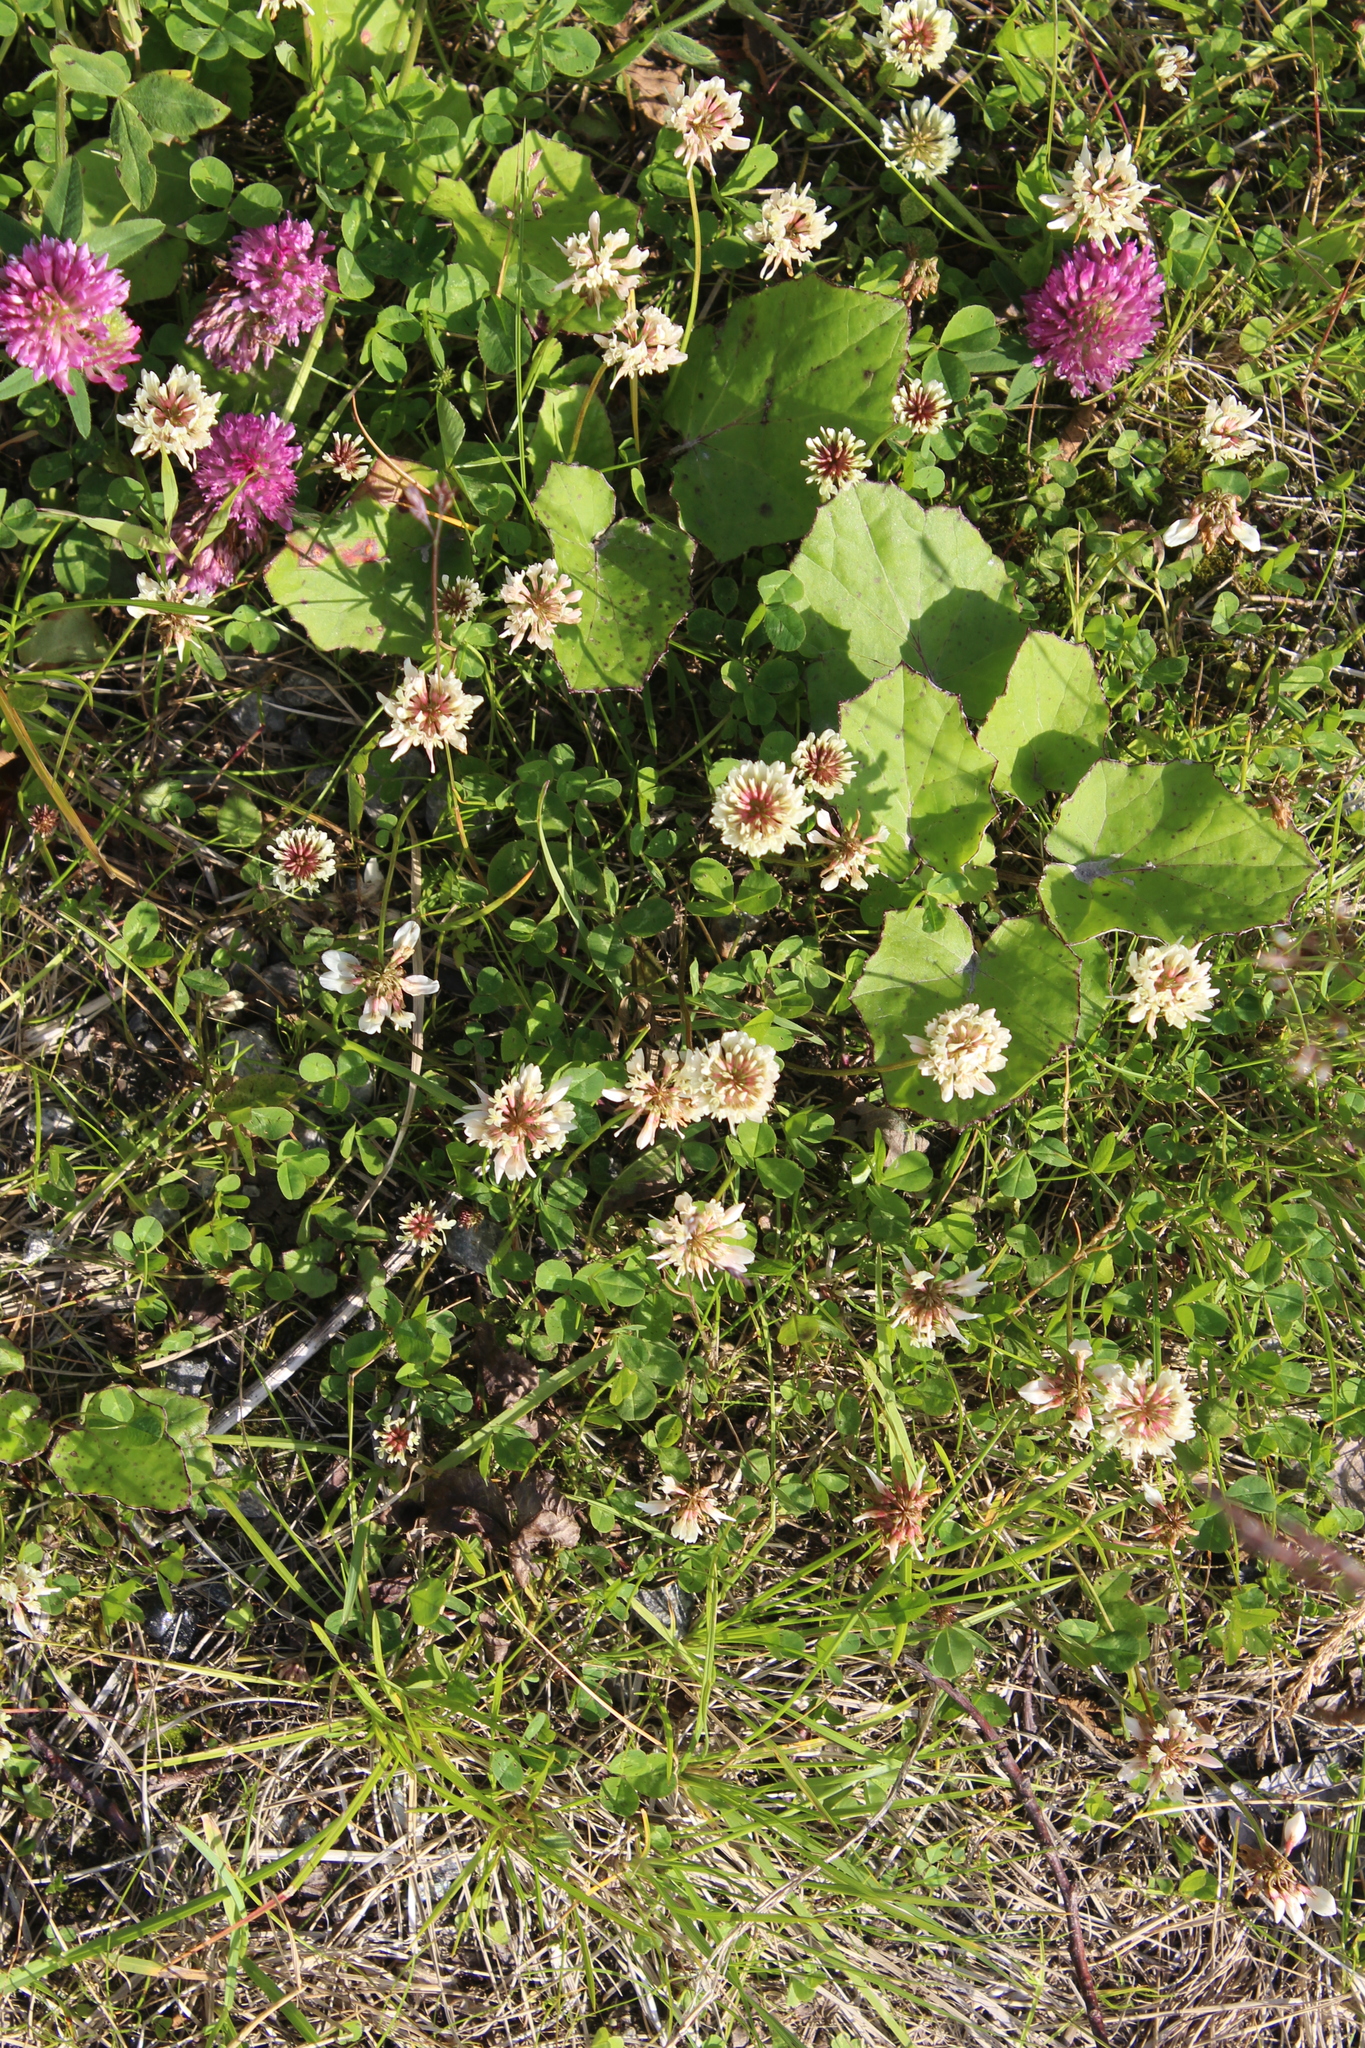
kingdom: Plantae
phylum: Tracheophyta
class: Magnoliopsida
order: Fabales
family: Fabaceae
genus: Trifolium
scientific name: Trifolium repens
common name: White clover
